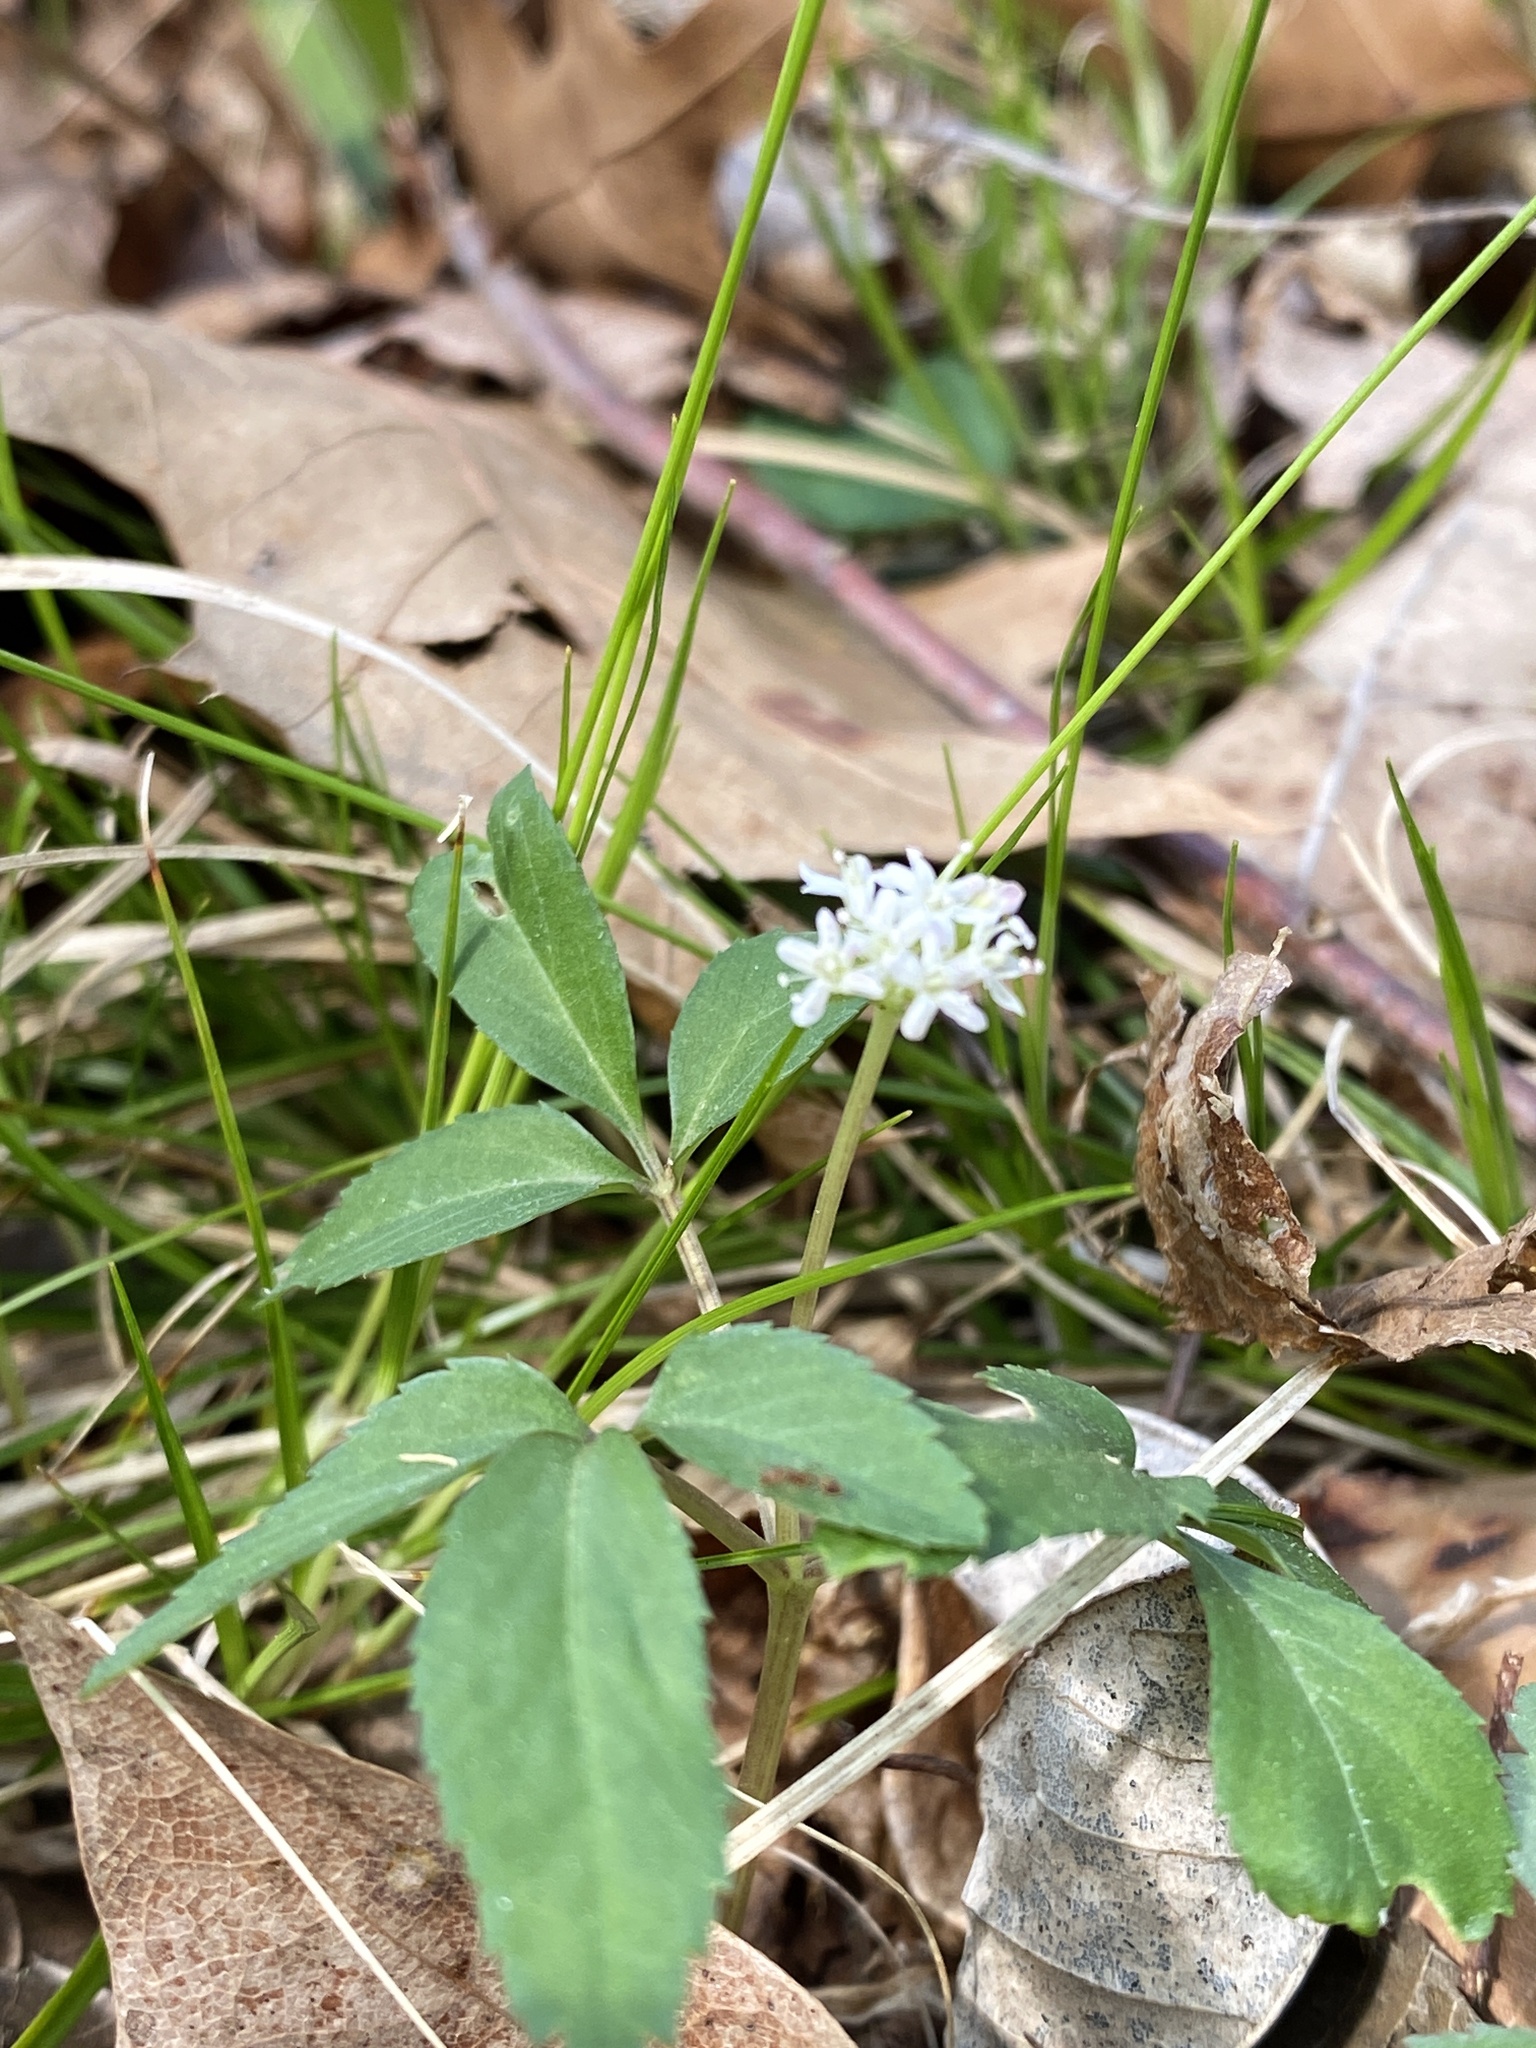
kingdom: Plantae
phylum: Tracheophyta
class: Magnoliopsida
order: Apiales
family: Araliaceae
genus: Panax
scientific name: Panax trifolius
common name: Dwarf ginseng
